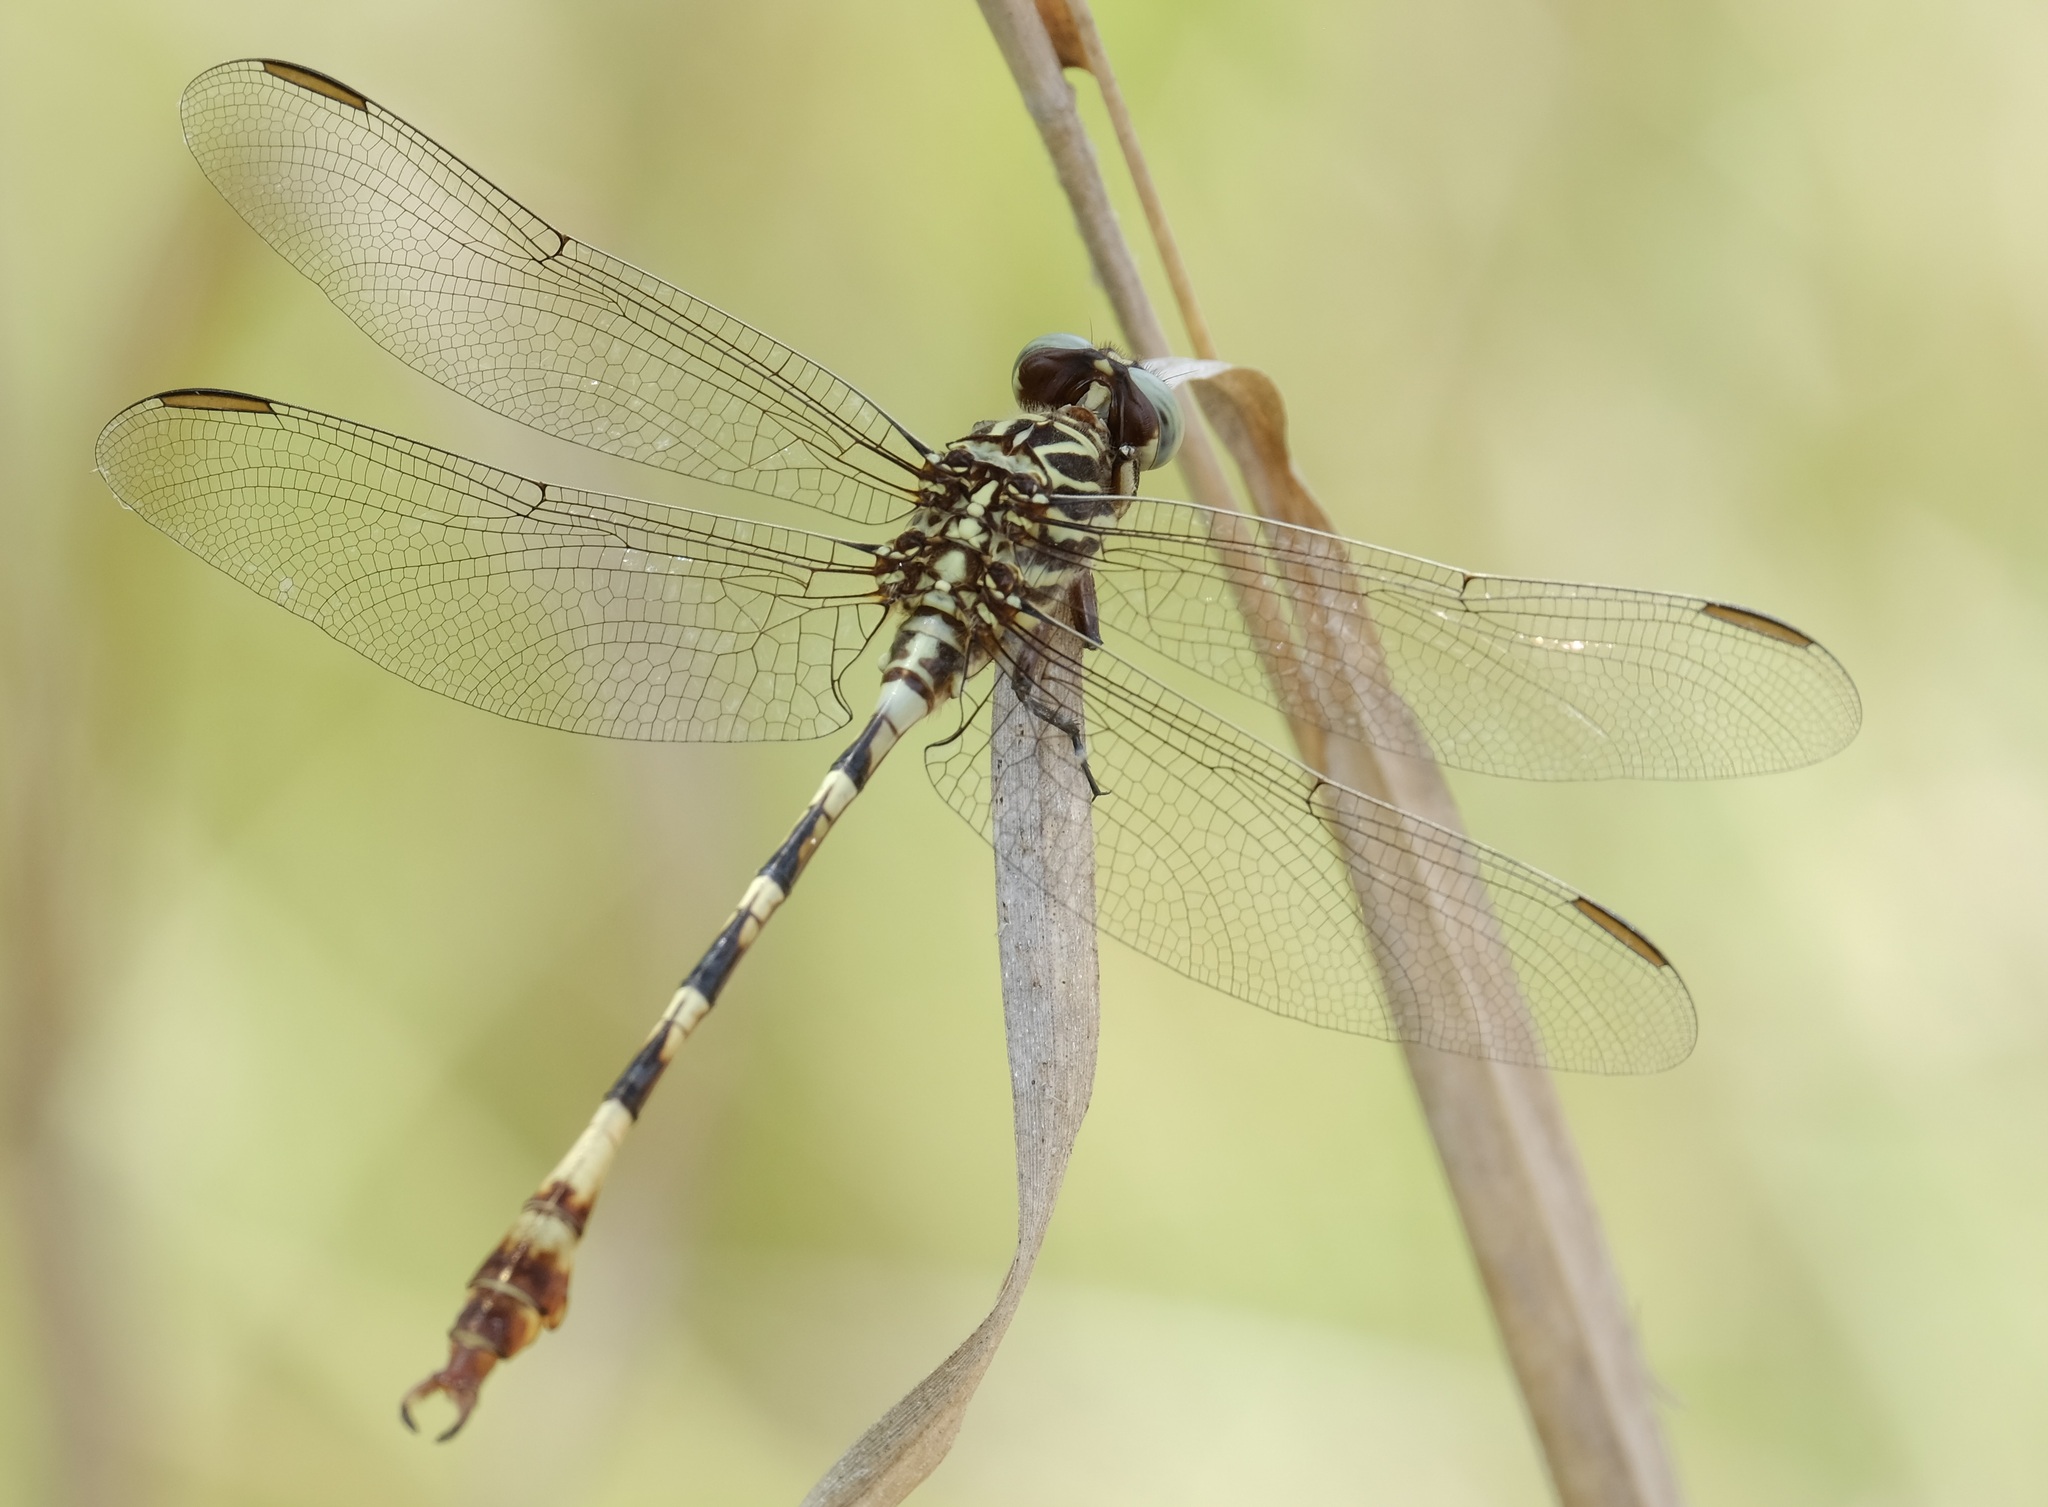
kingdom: Animalia
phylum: Arthropoda
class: Insecta
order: Odonata
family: Gomphidae
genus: Aphylla
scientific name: Aphylla angustifolia
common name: Broad-striped forceptail
